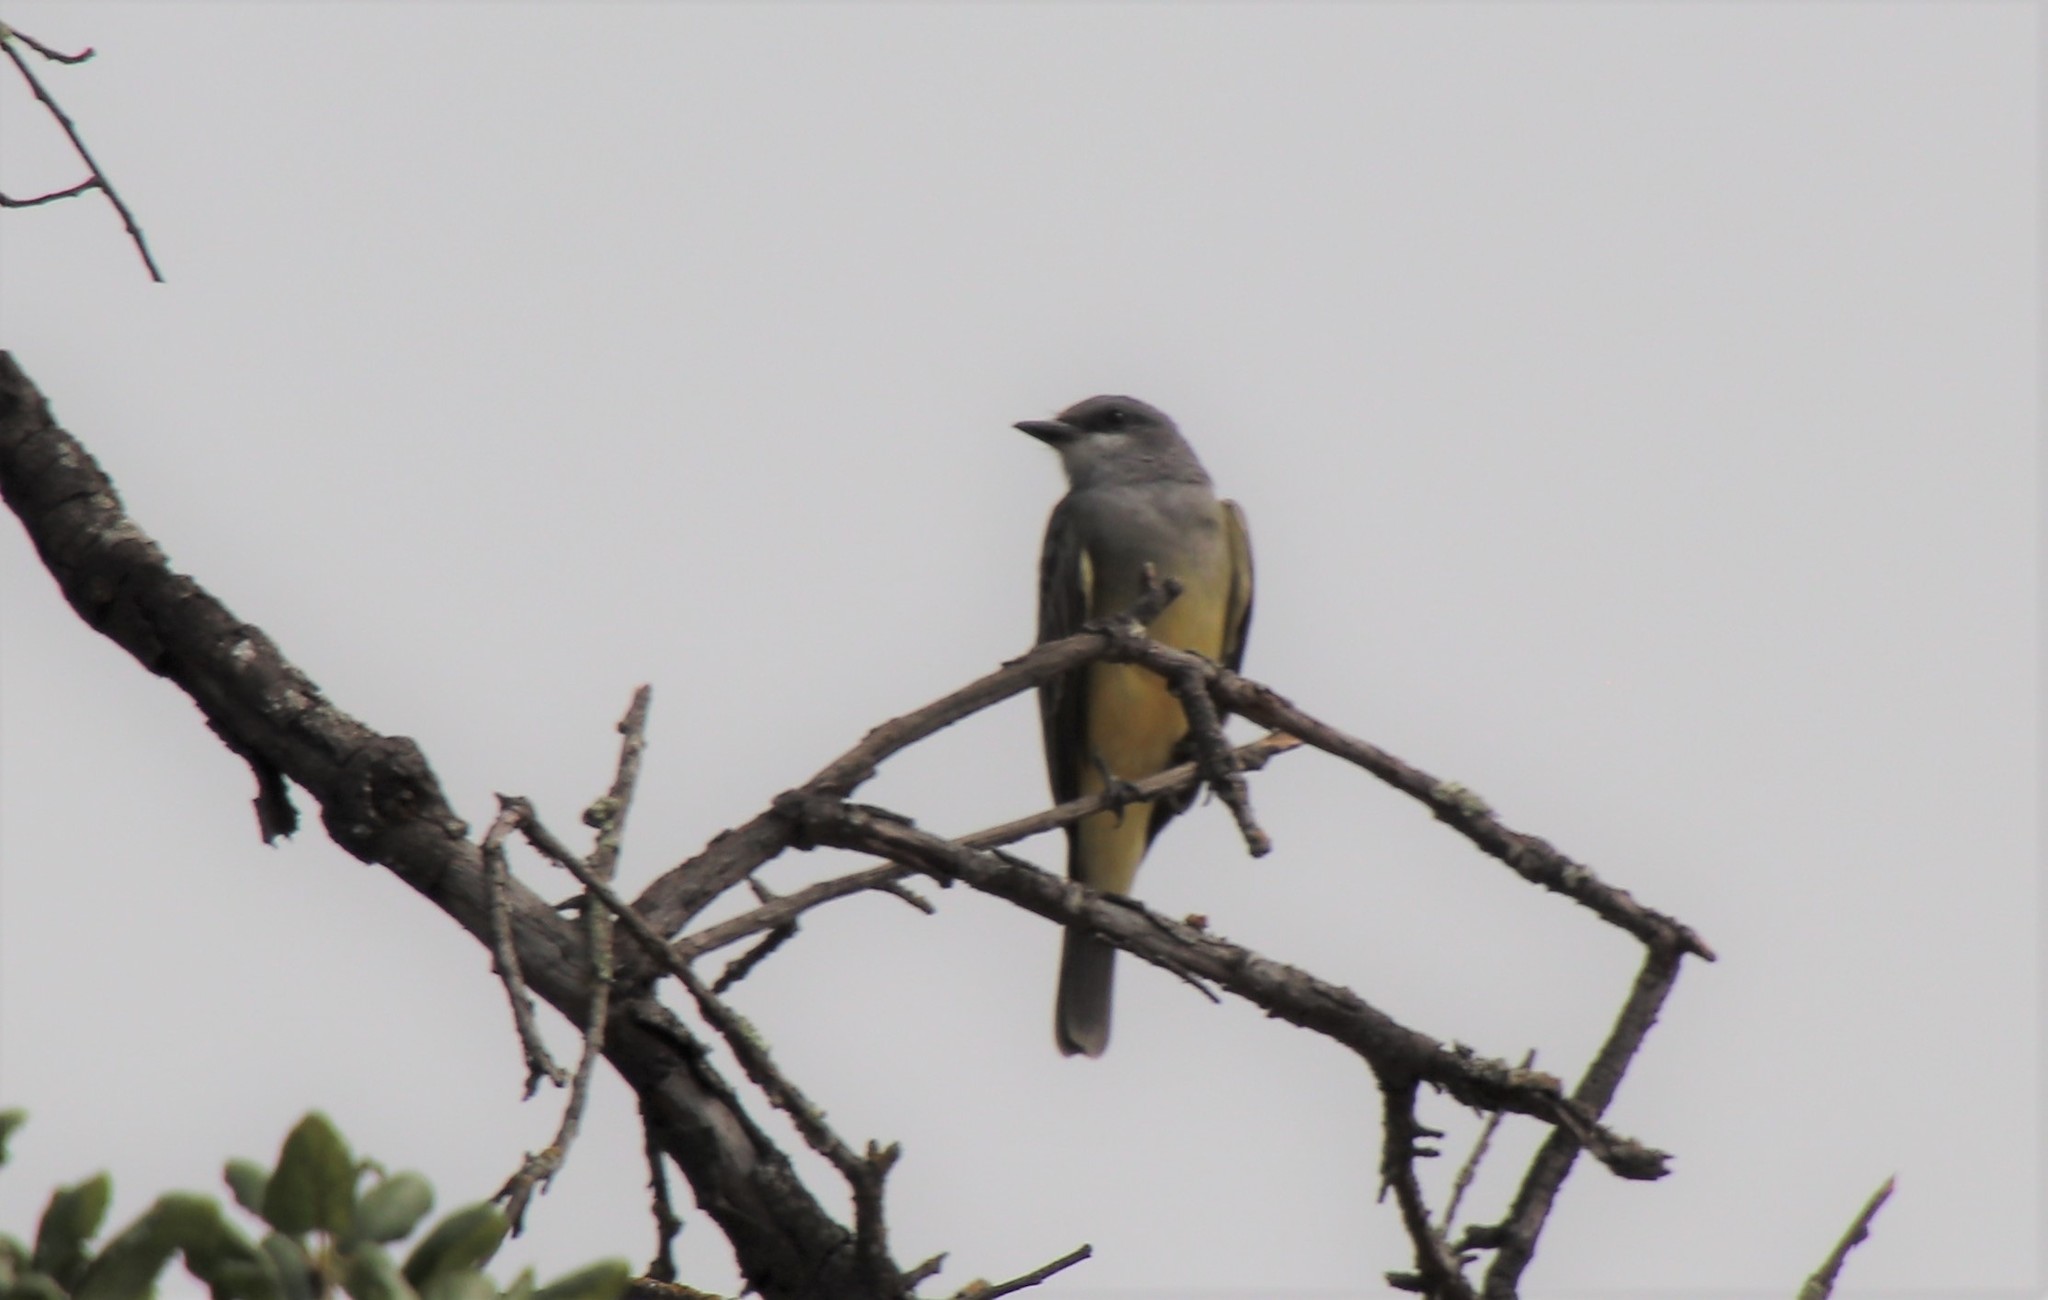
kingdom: Animalia
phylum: Chordata
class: Aves
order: Passeriformes
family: Tyrannidae
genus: Tyrannus
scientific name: Tyrannus vociferans
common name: Cassin's kingbird
